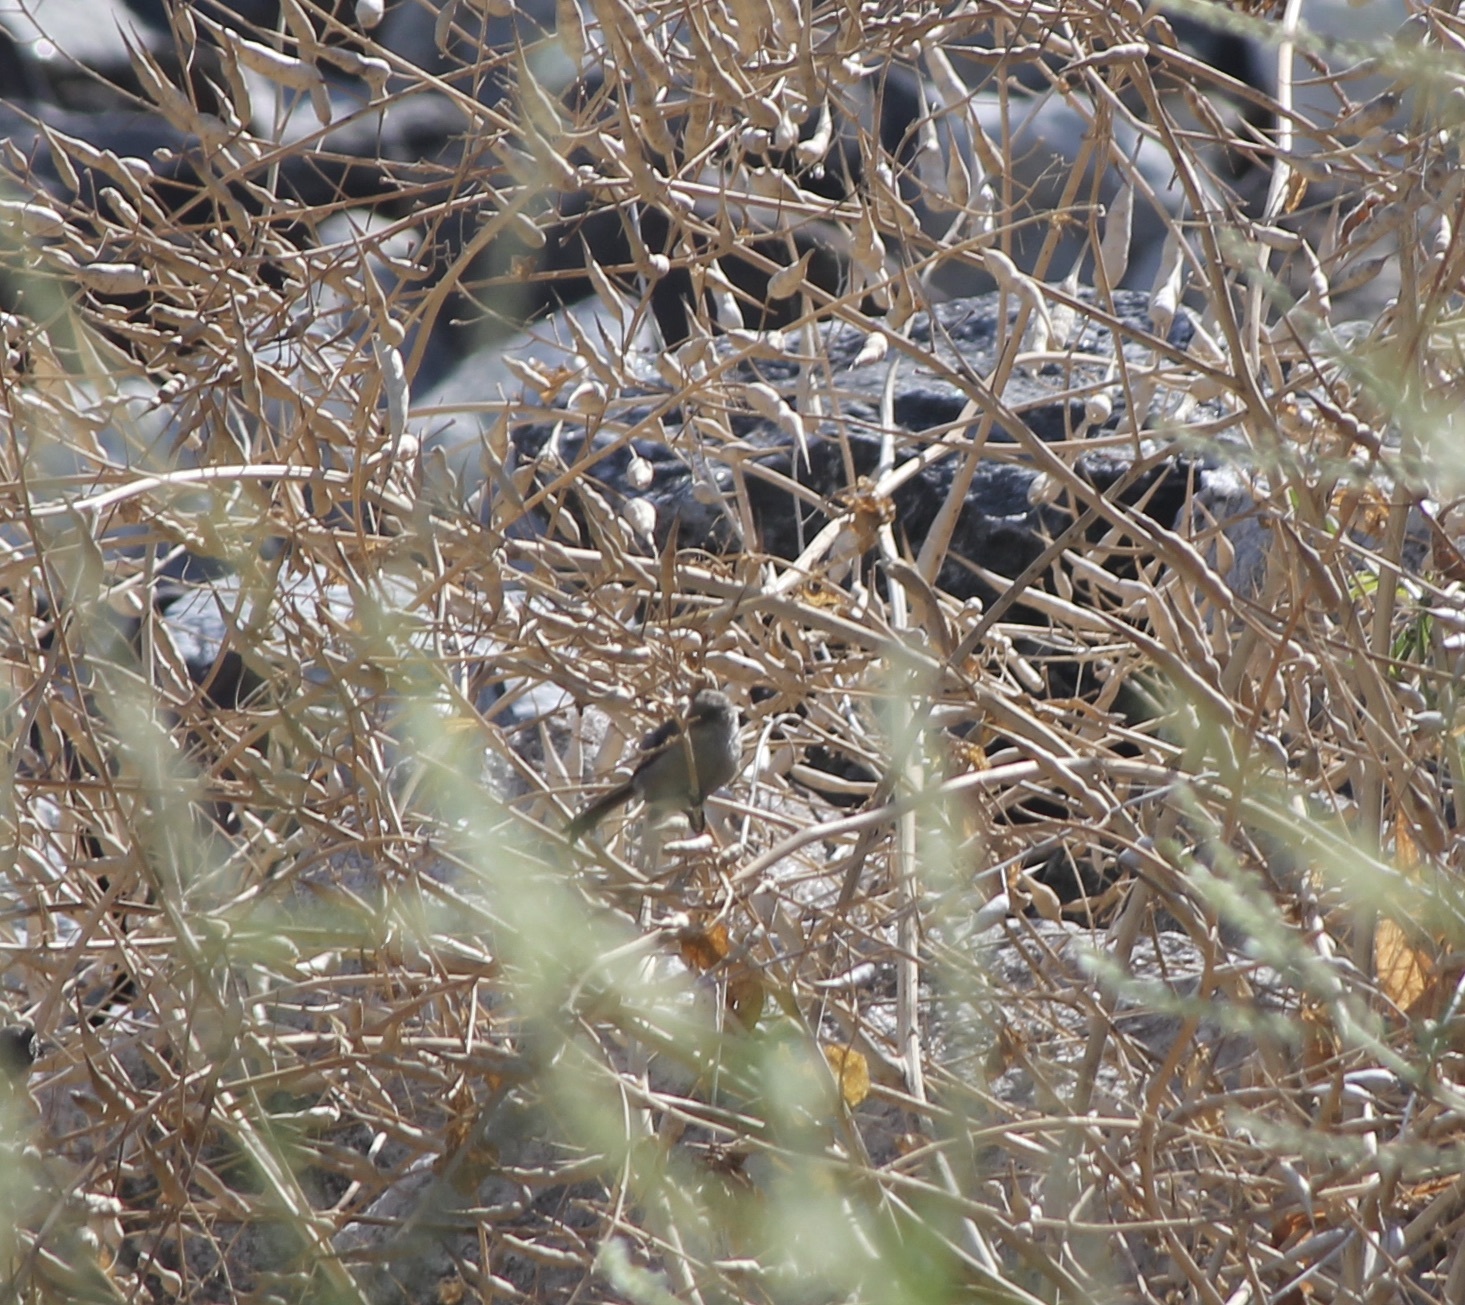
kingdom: Animalia
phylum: Chordata
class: Aves
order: Passeriformes
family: Aegithalidae
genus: Psaltriparus
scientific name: Psaltriparus minimus
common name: American bushtit
